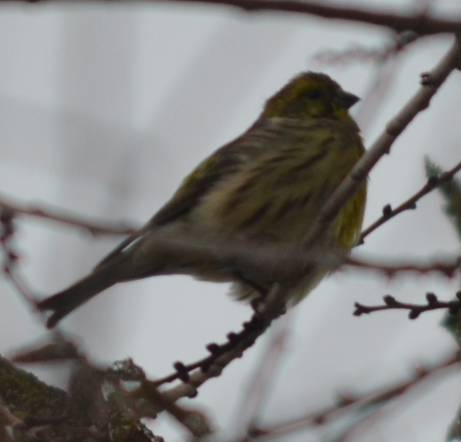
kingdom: Animalia
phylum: Chordata
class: Aves
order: Passeriformes
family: Fringillidae
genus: Serinus
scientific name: Serinus serinus
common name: European serin
